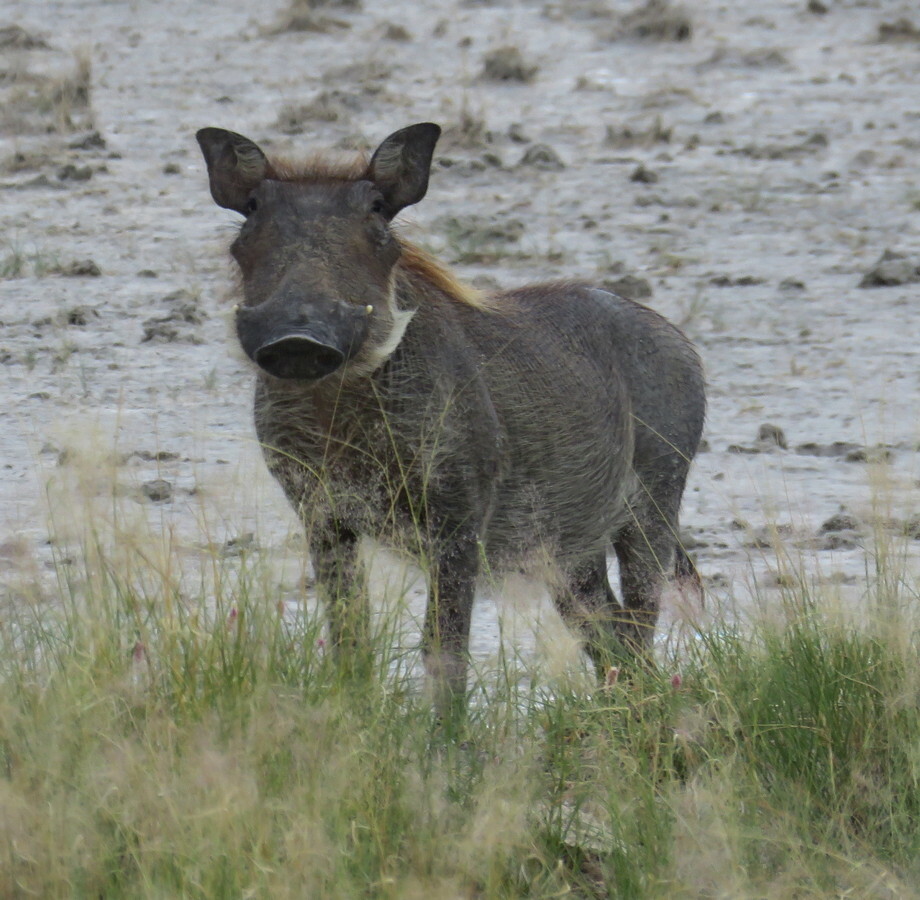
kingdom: Animalia
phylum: Chordata
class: Mammalia
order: Artiodactyla
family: Suidae
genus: Phacochoerus
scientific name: Phacochoerus africanus
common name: Common warthog
